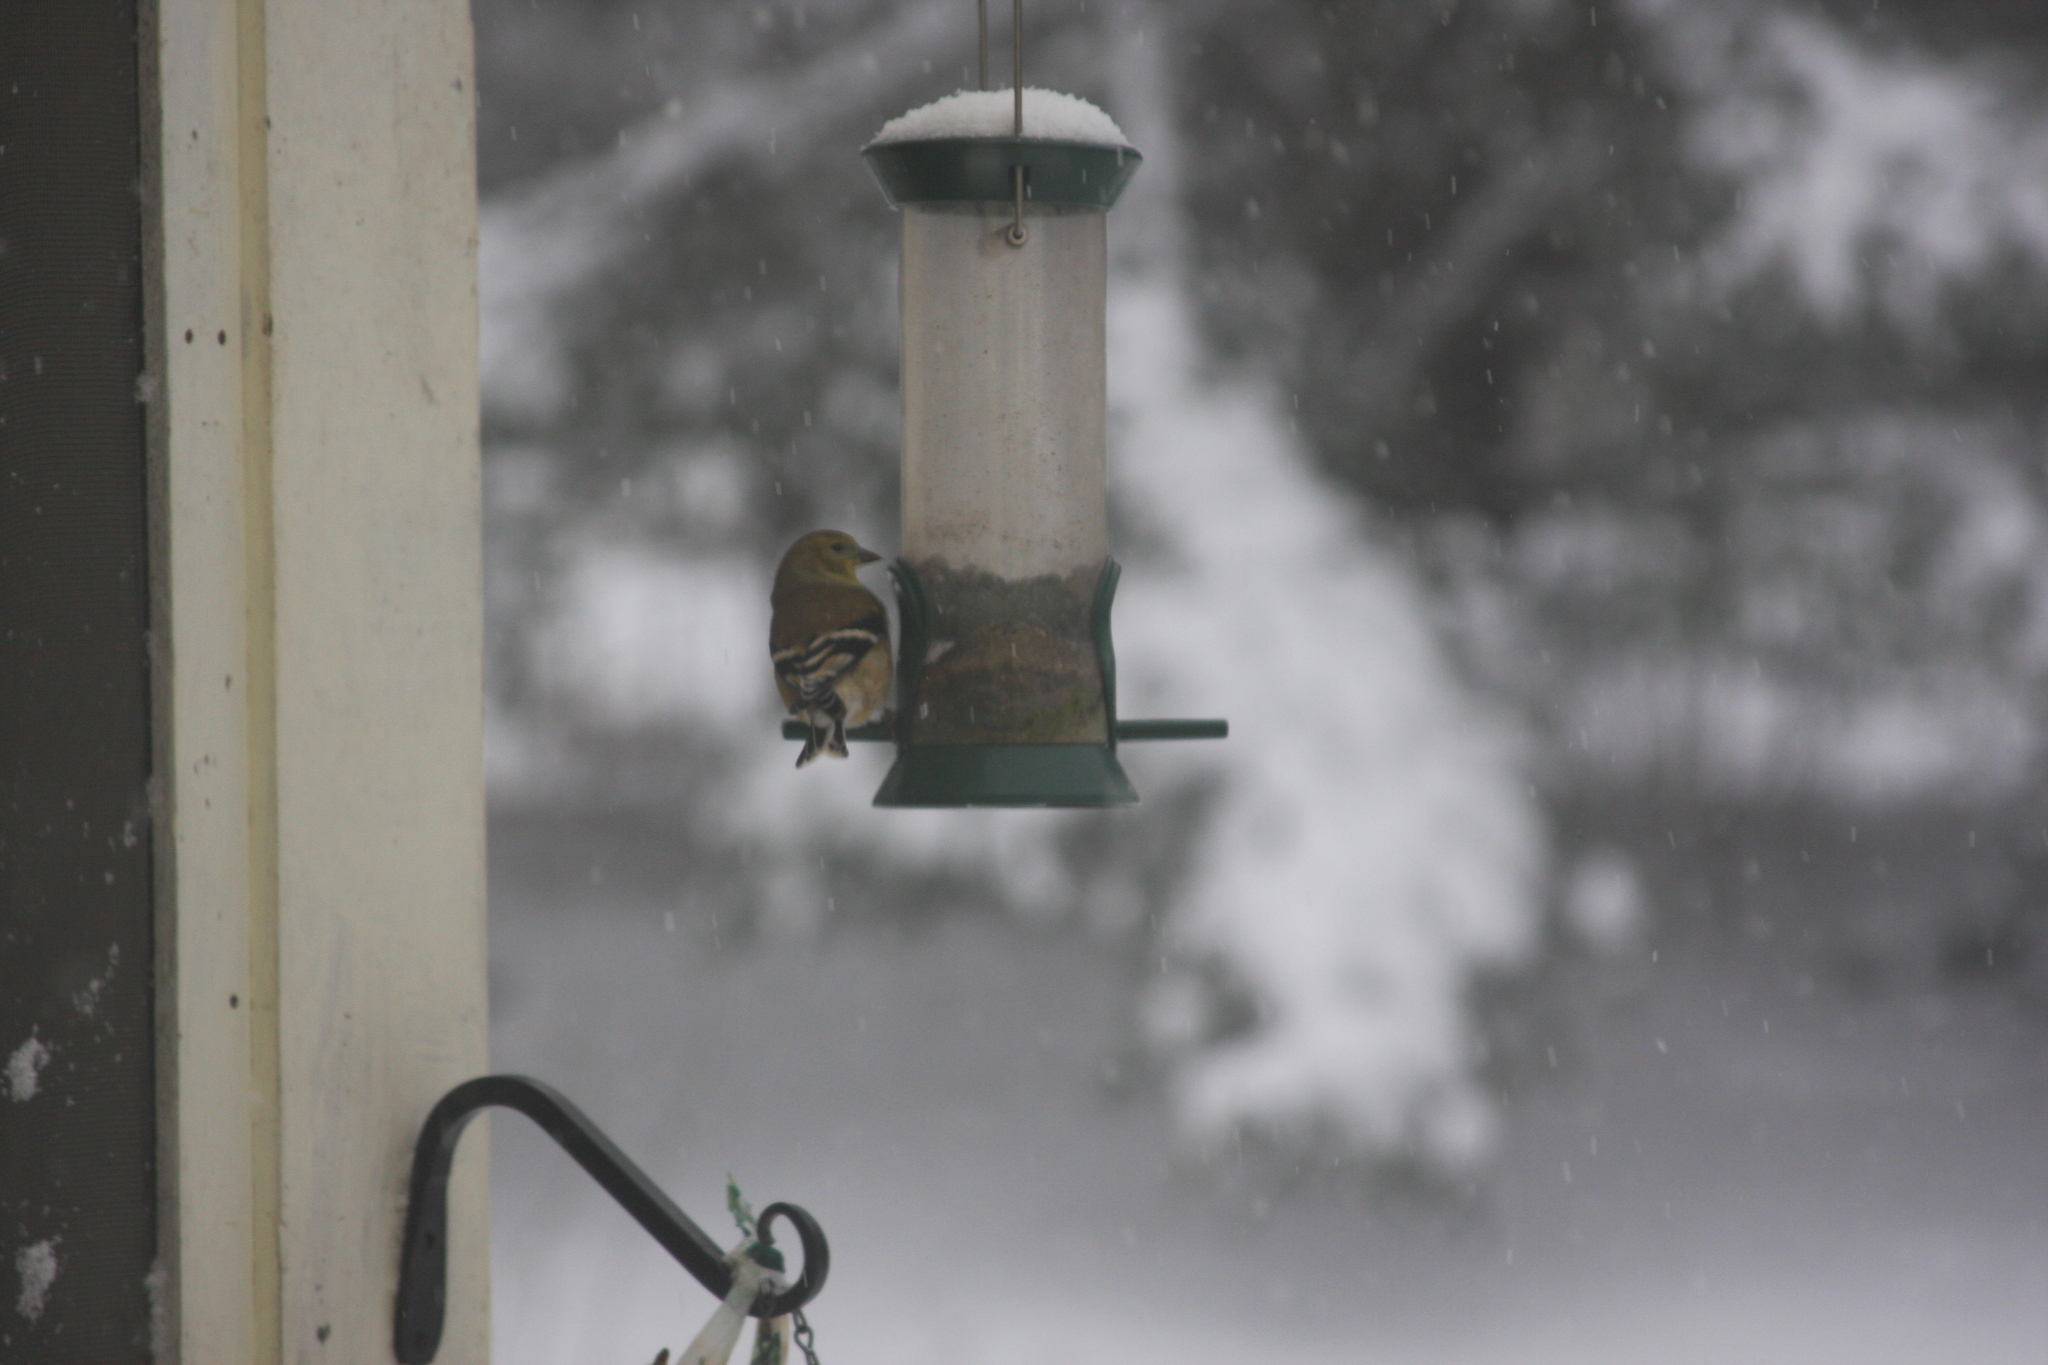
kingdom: Animalia
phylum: Chordata
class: Aves
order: Passeriformes
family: Fringillidae
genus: Spinus
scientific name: Spinus tristis
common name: American goldfinch
